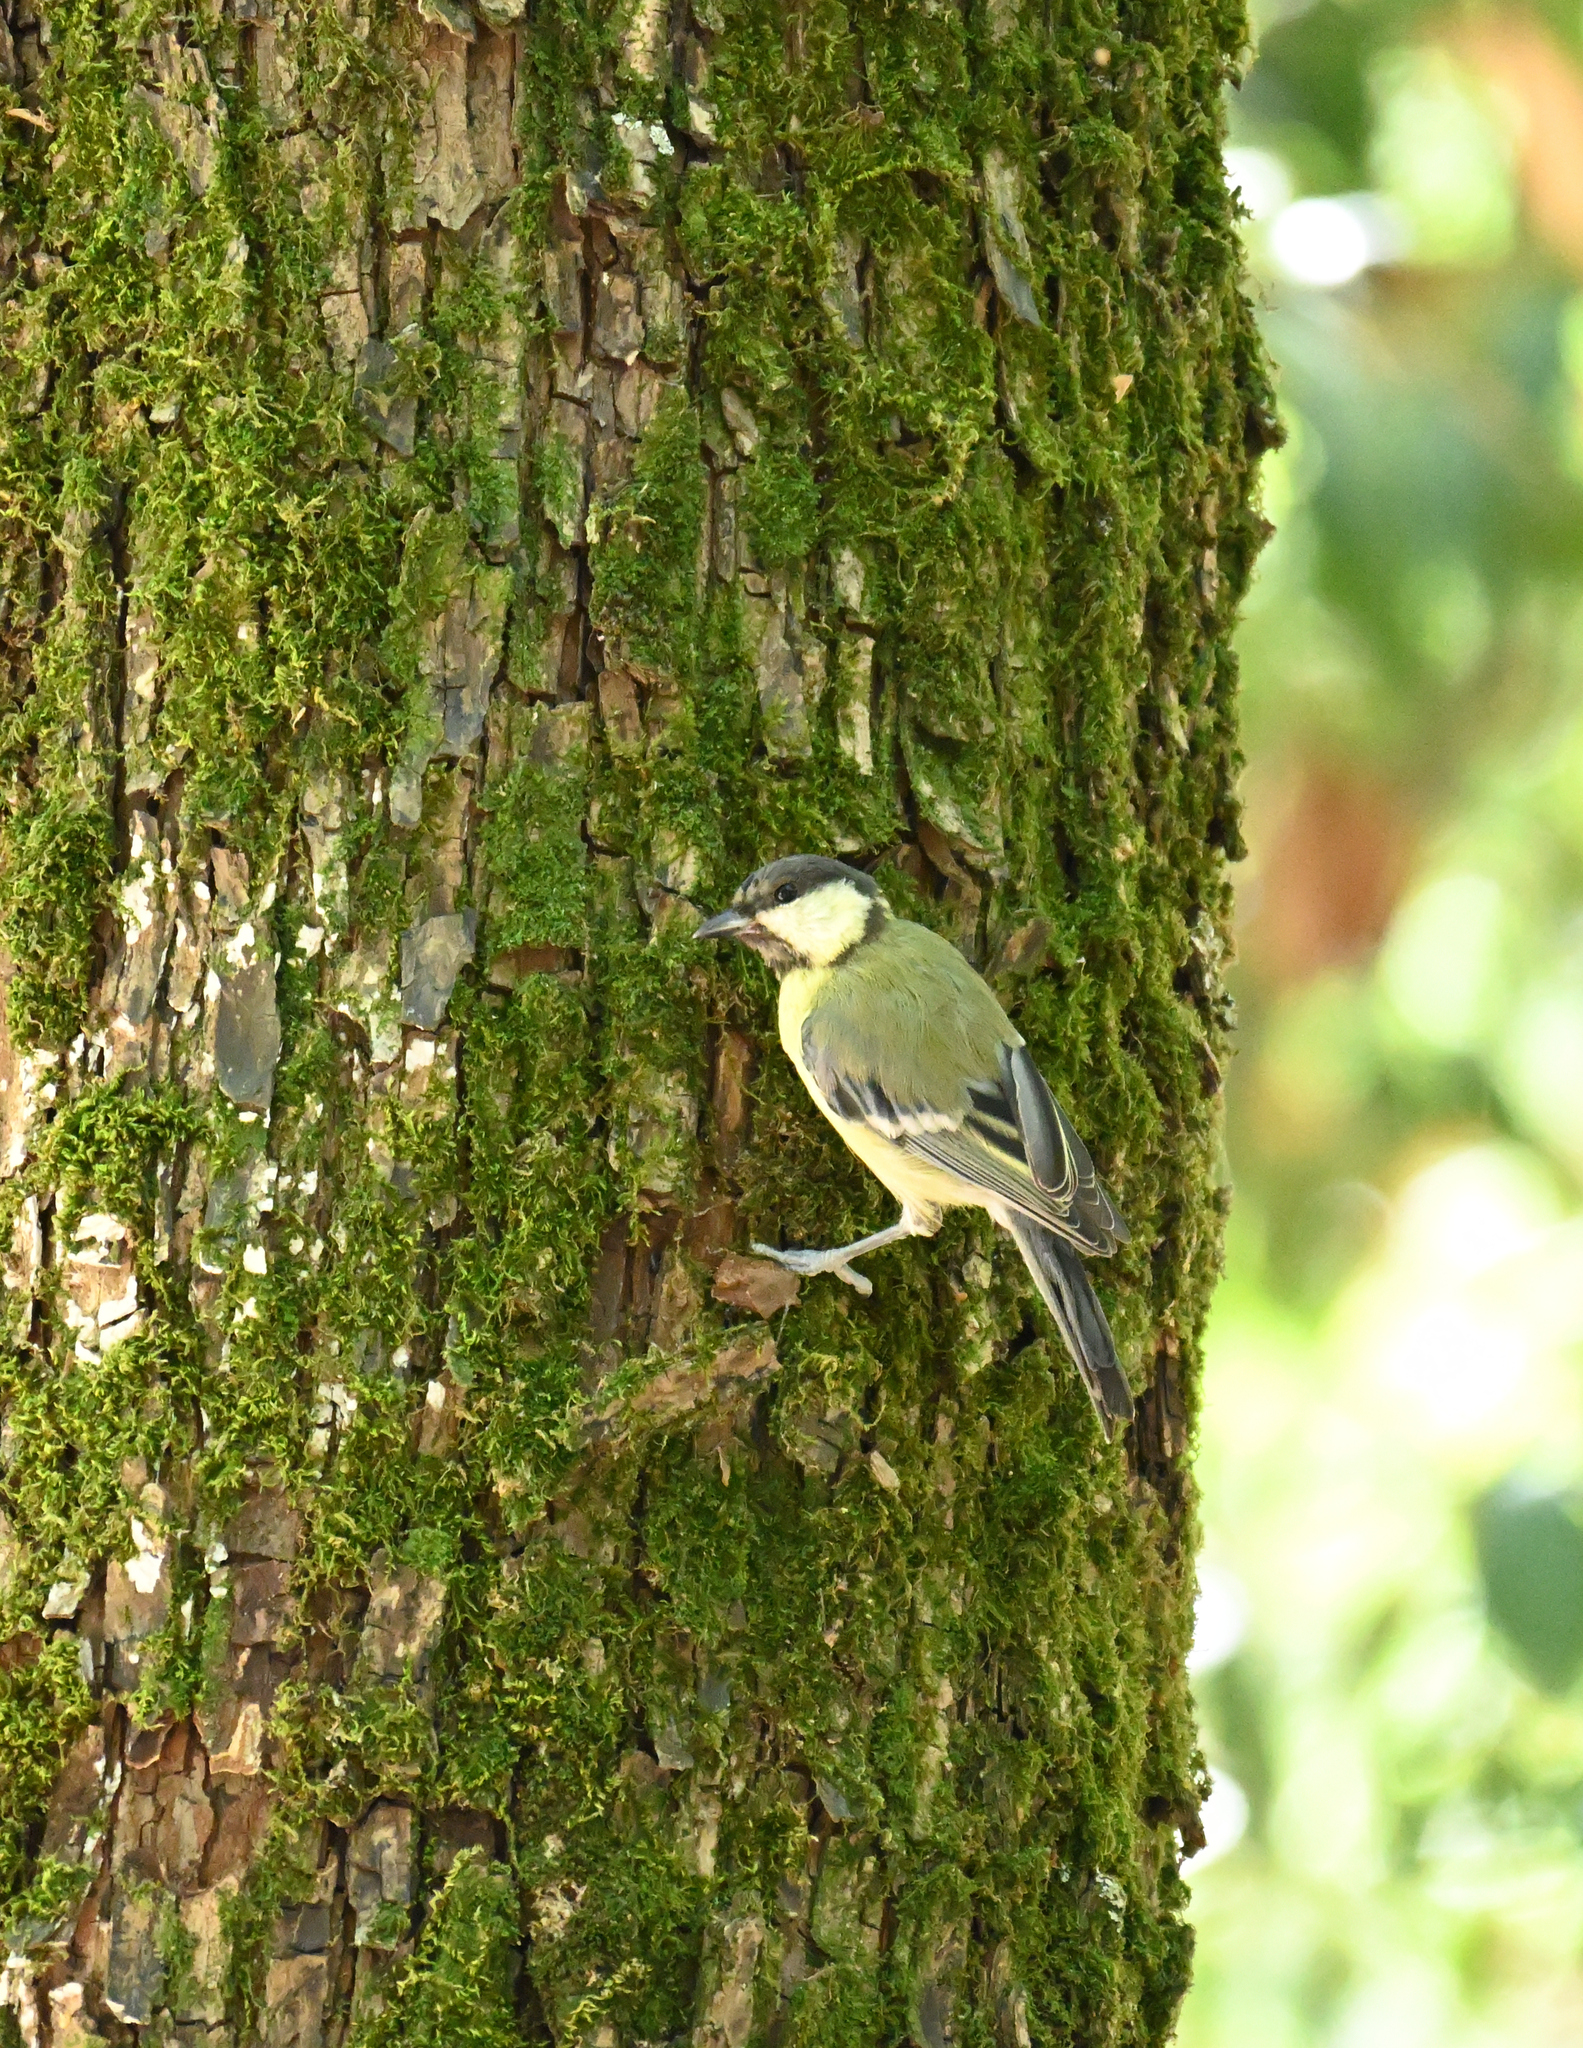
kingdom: Animalia
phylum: Chordata
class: Aves
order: Passeriformes
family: Paridae
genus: Parus
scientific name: Parus major
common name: Great tit
